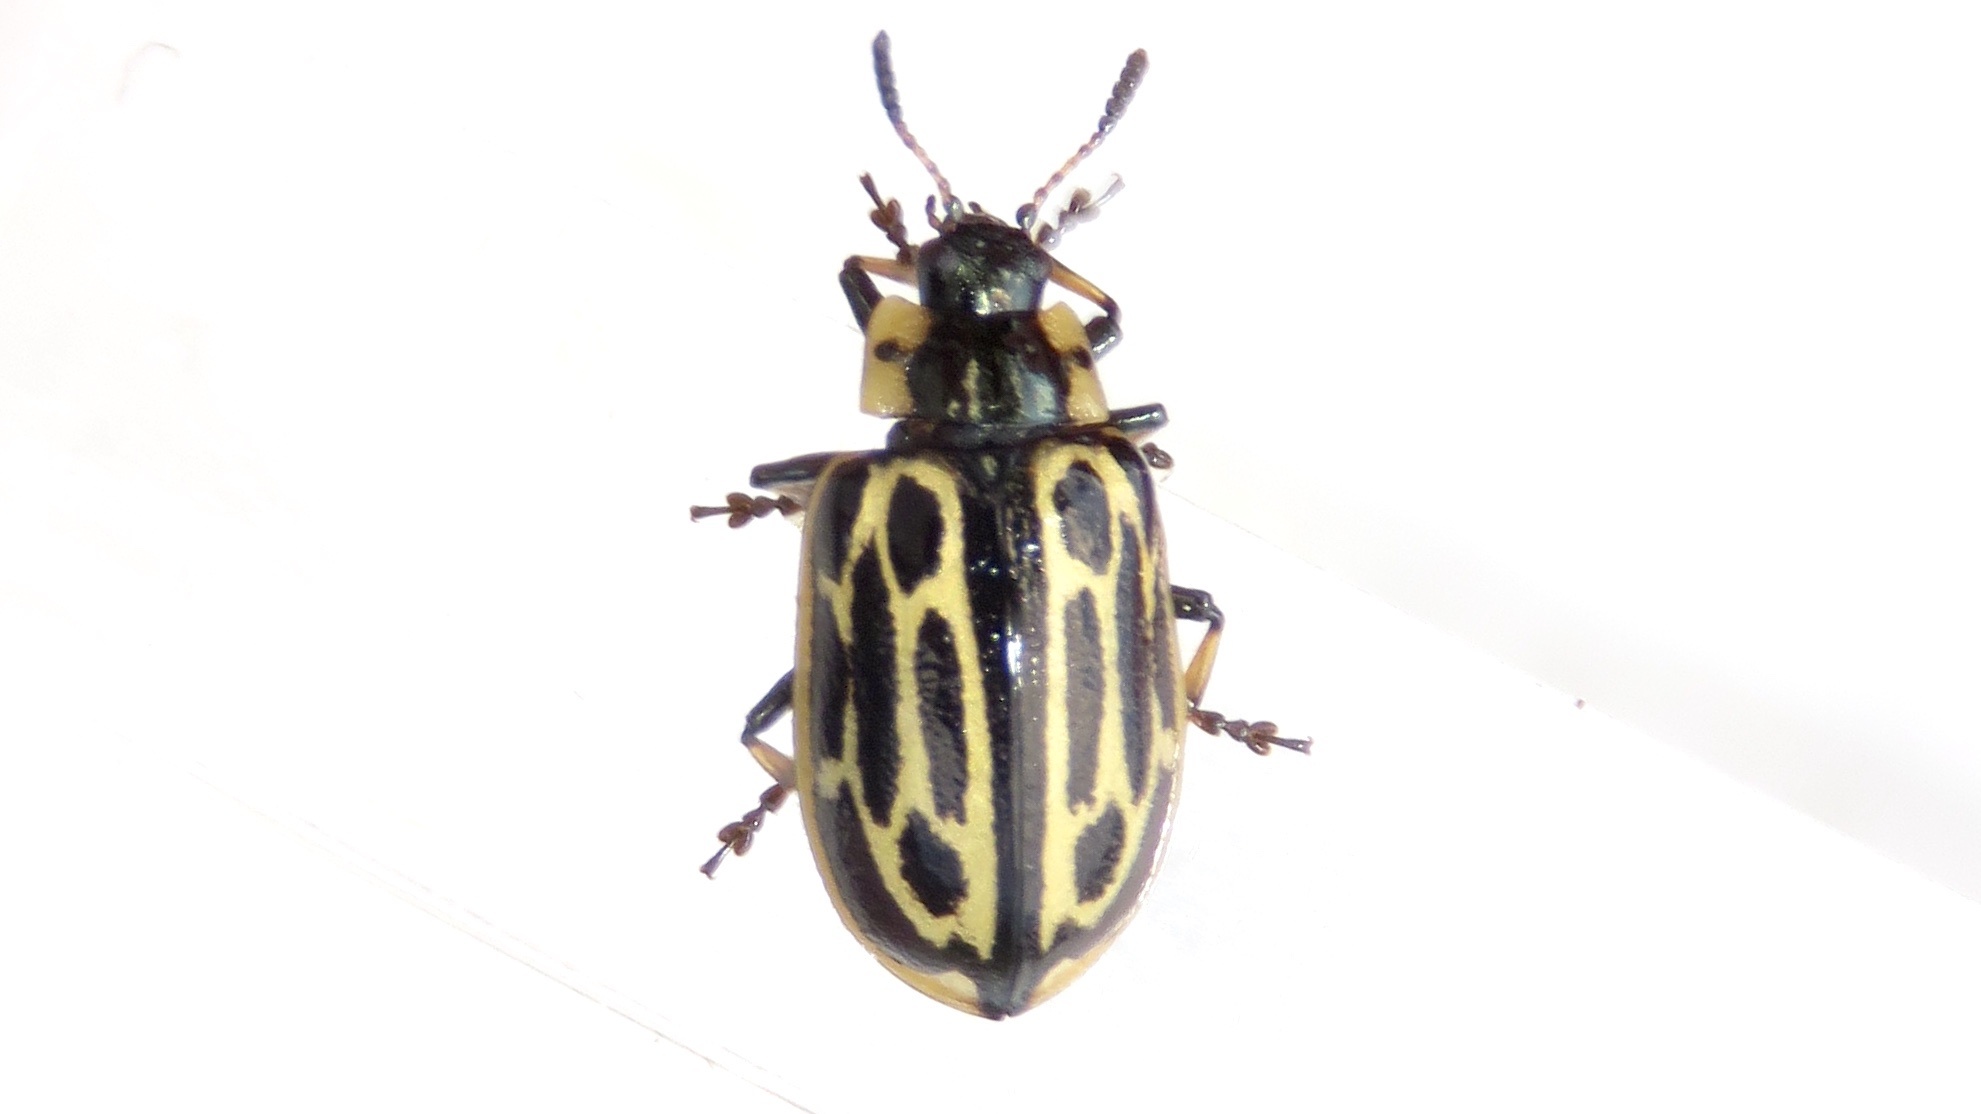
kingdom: Animalia
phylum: Arthropoda
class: Insecta
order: Coleoptera
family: Chrysomelidae
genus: Aethiopocassis
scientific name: Aethiopocassis scripta
